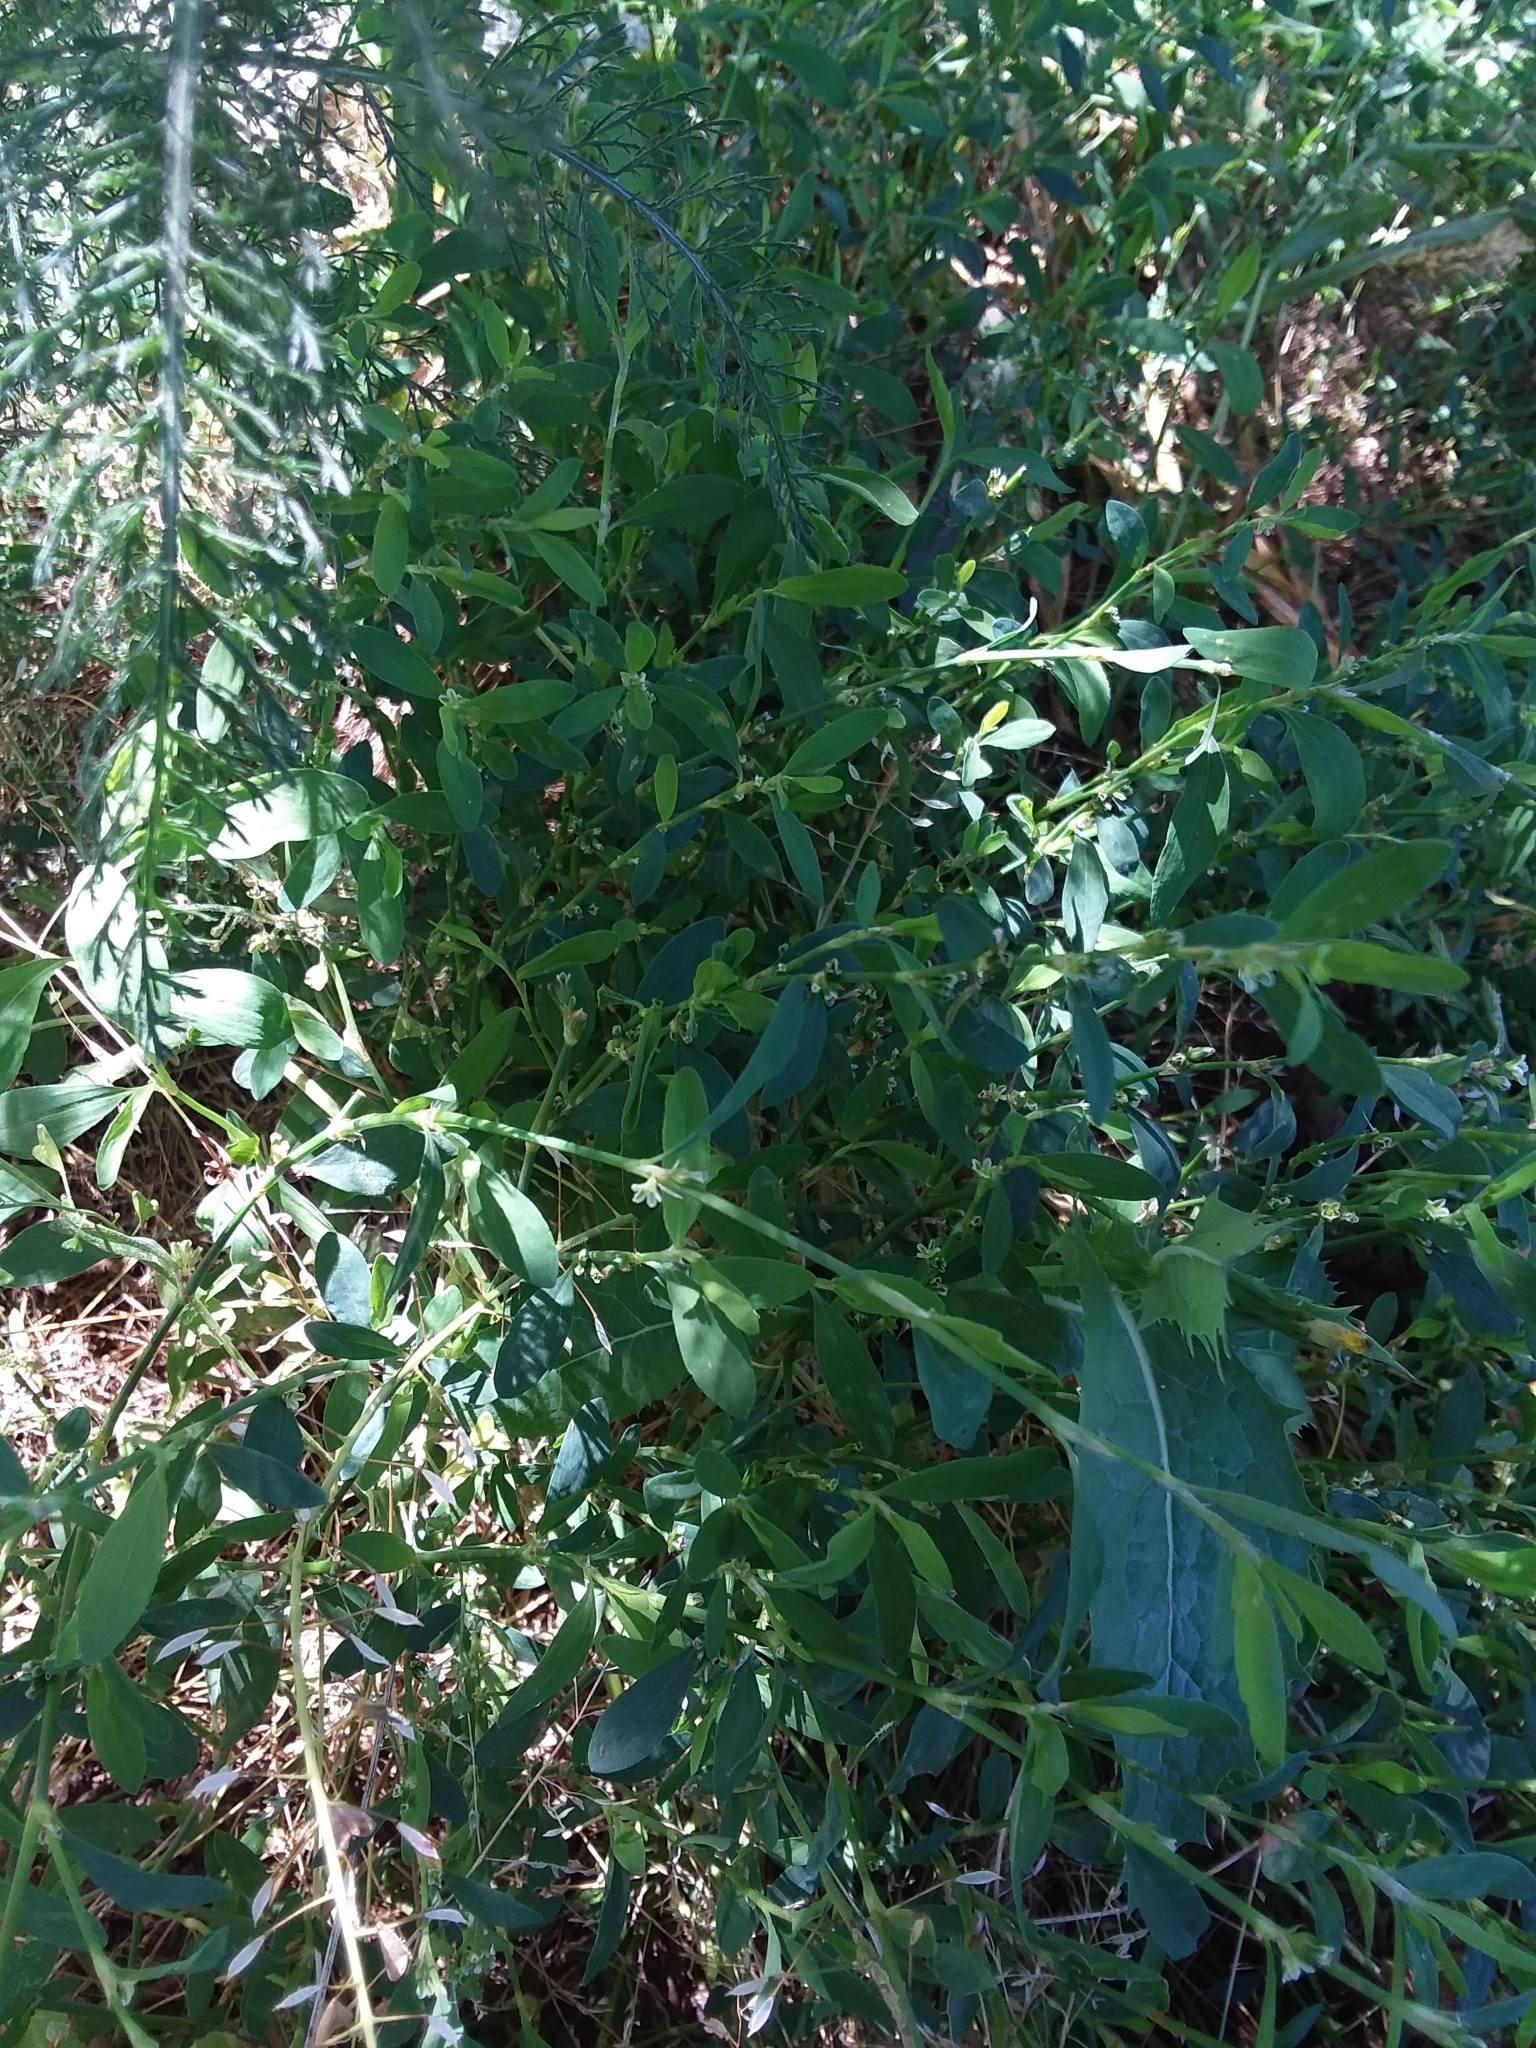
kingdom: Plantae
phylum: Tracheophyta
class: Magnoliopsida
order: Caryophyllales
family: Polygonaceae
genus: Polygonum
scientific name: Polygonum aviculare
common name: Prostrate knotweed
